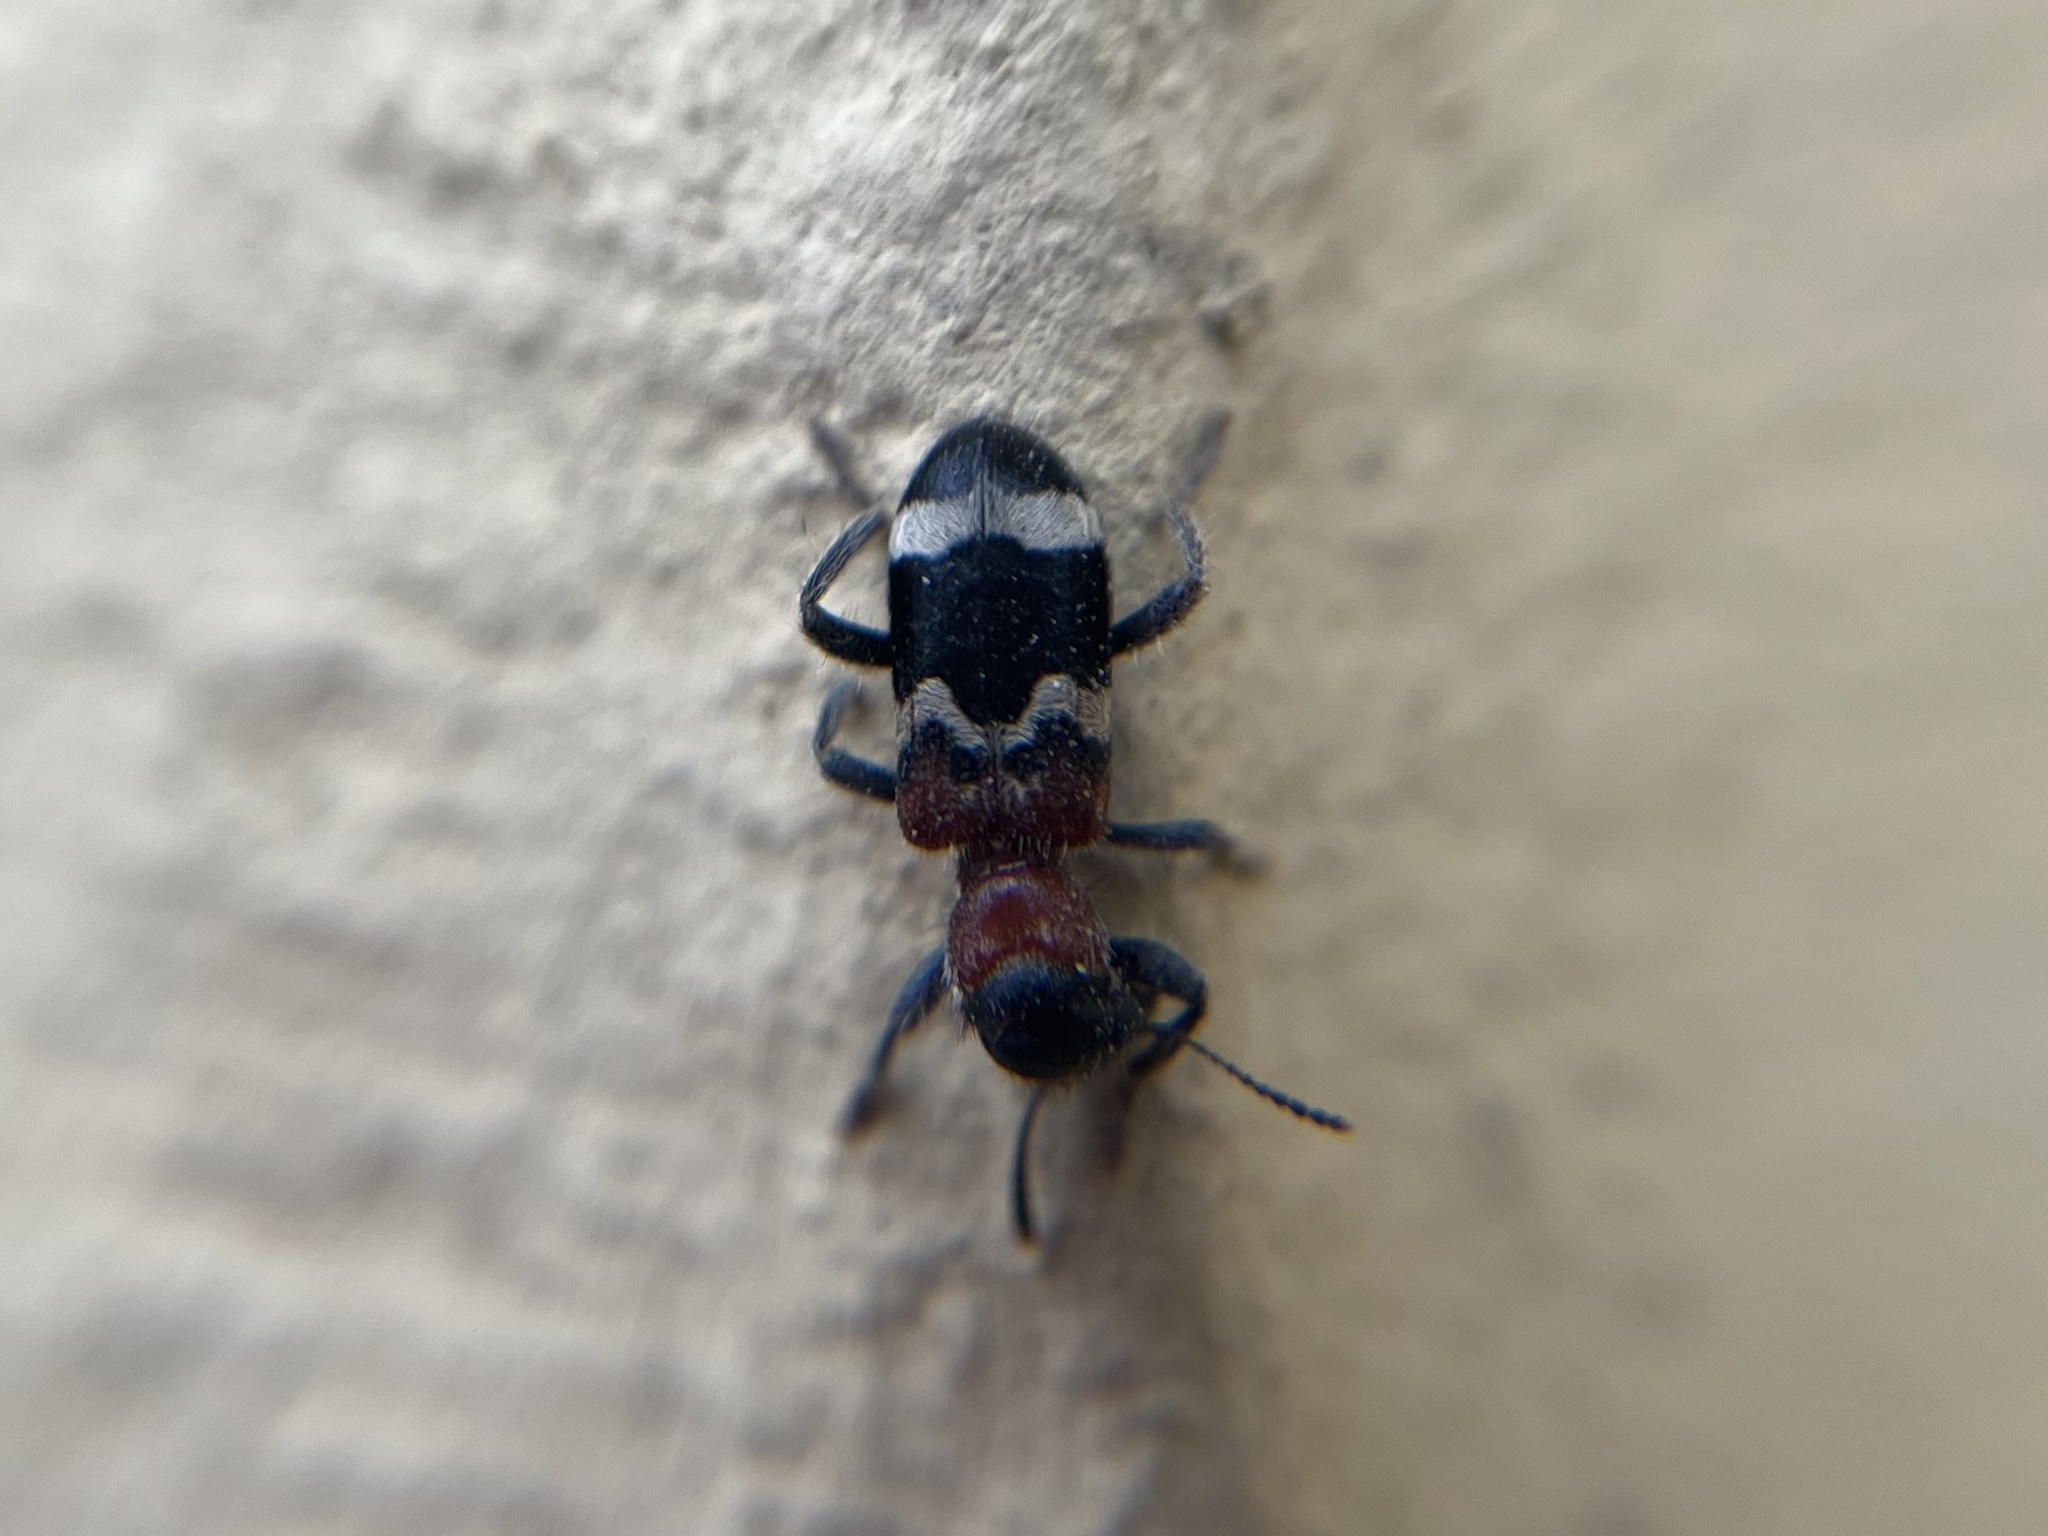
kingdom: Animalia
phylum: Arthropoda
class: Insecta
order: Coleoptera
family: Cleridae
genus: Thanasimus
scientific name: Thanasimus formicarius
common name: Ant beetle
